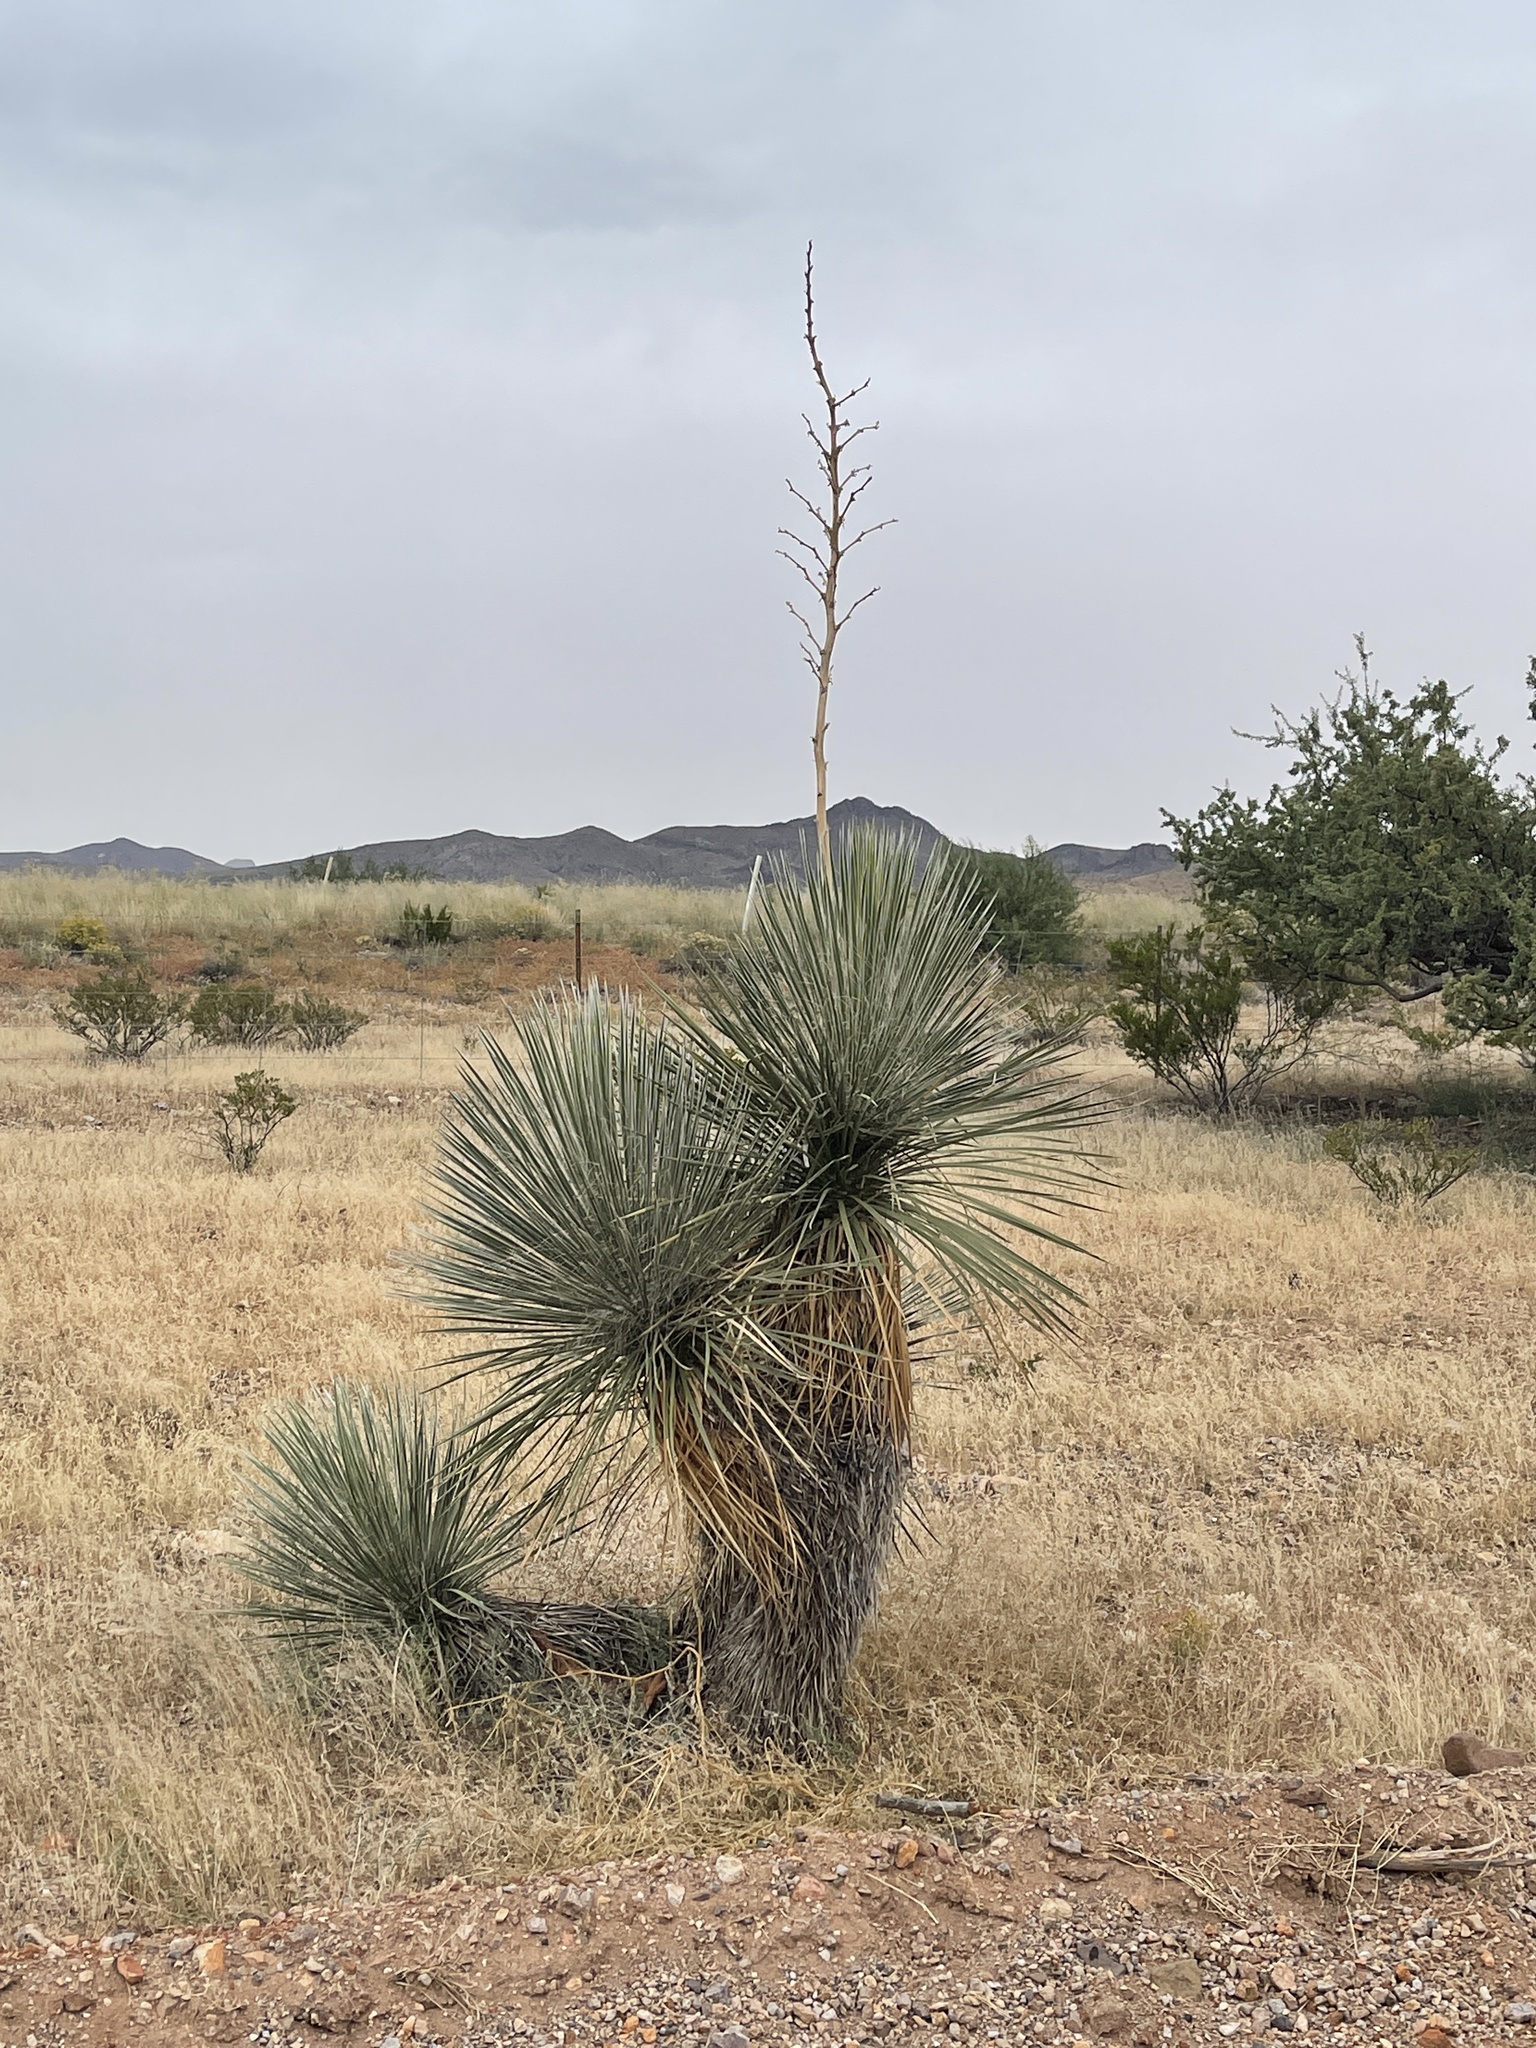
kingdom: Plantae
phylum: Tracheophyta
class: Liliopsida
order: Asparagales
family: Asparagaceae
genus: Yucca
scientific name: Yucca elata
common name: Palmella
